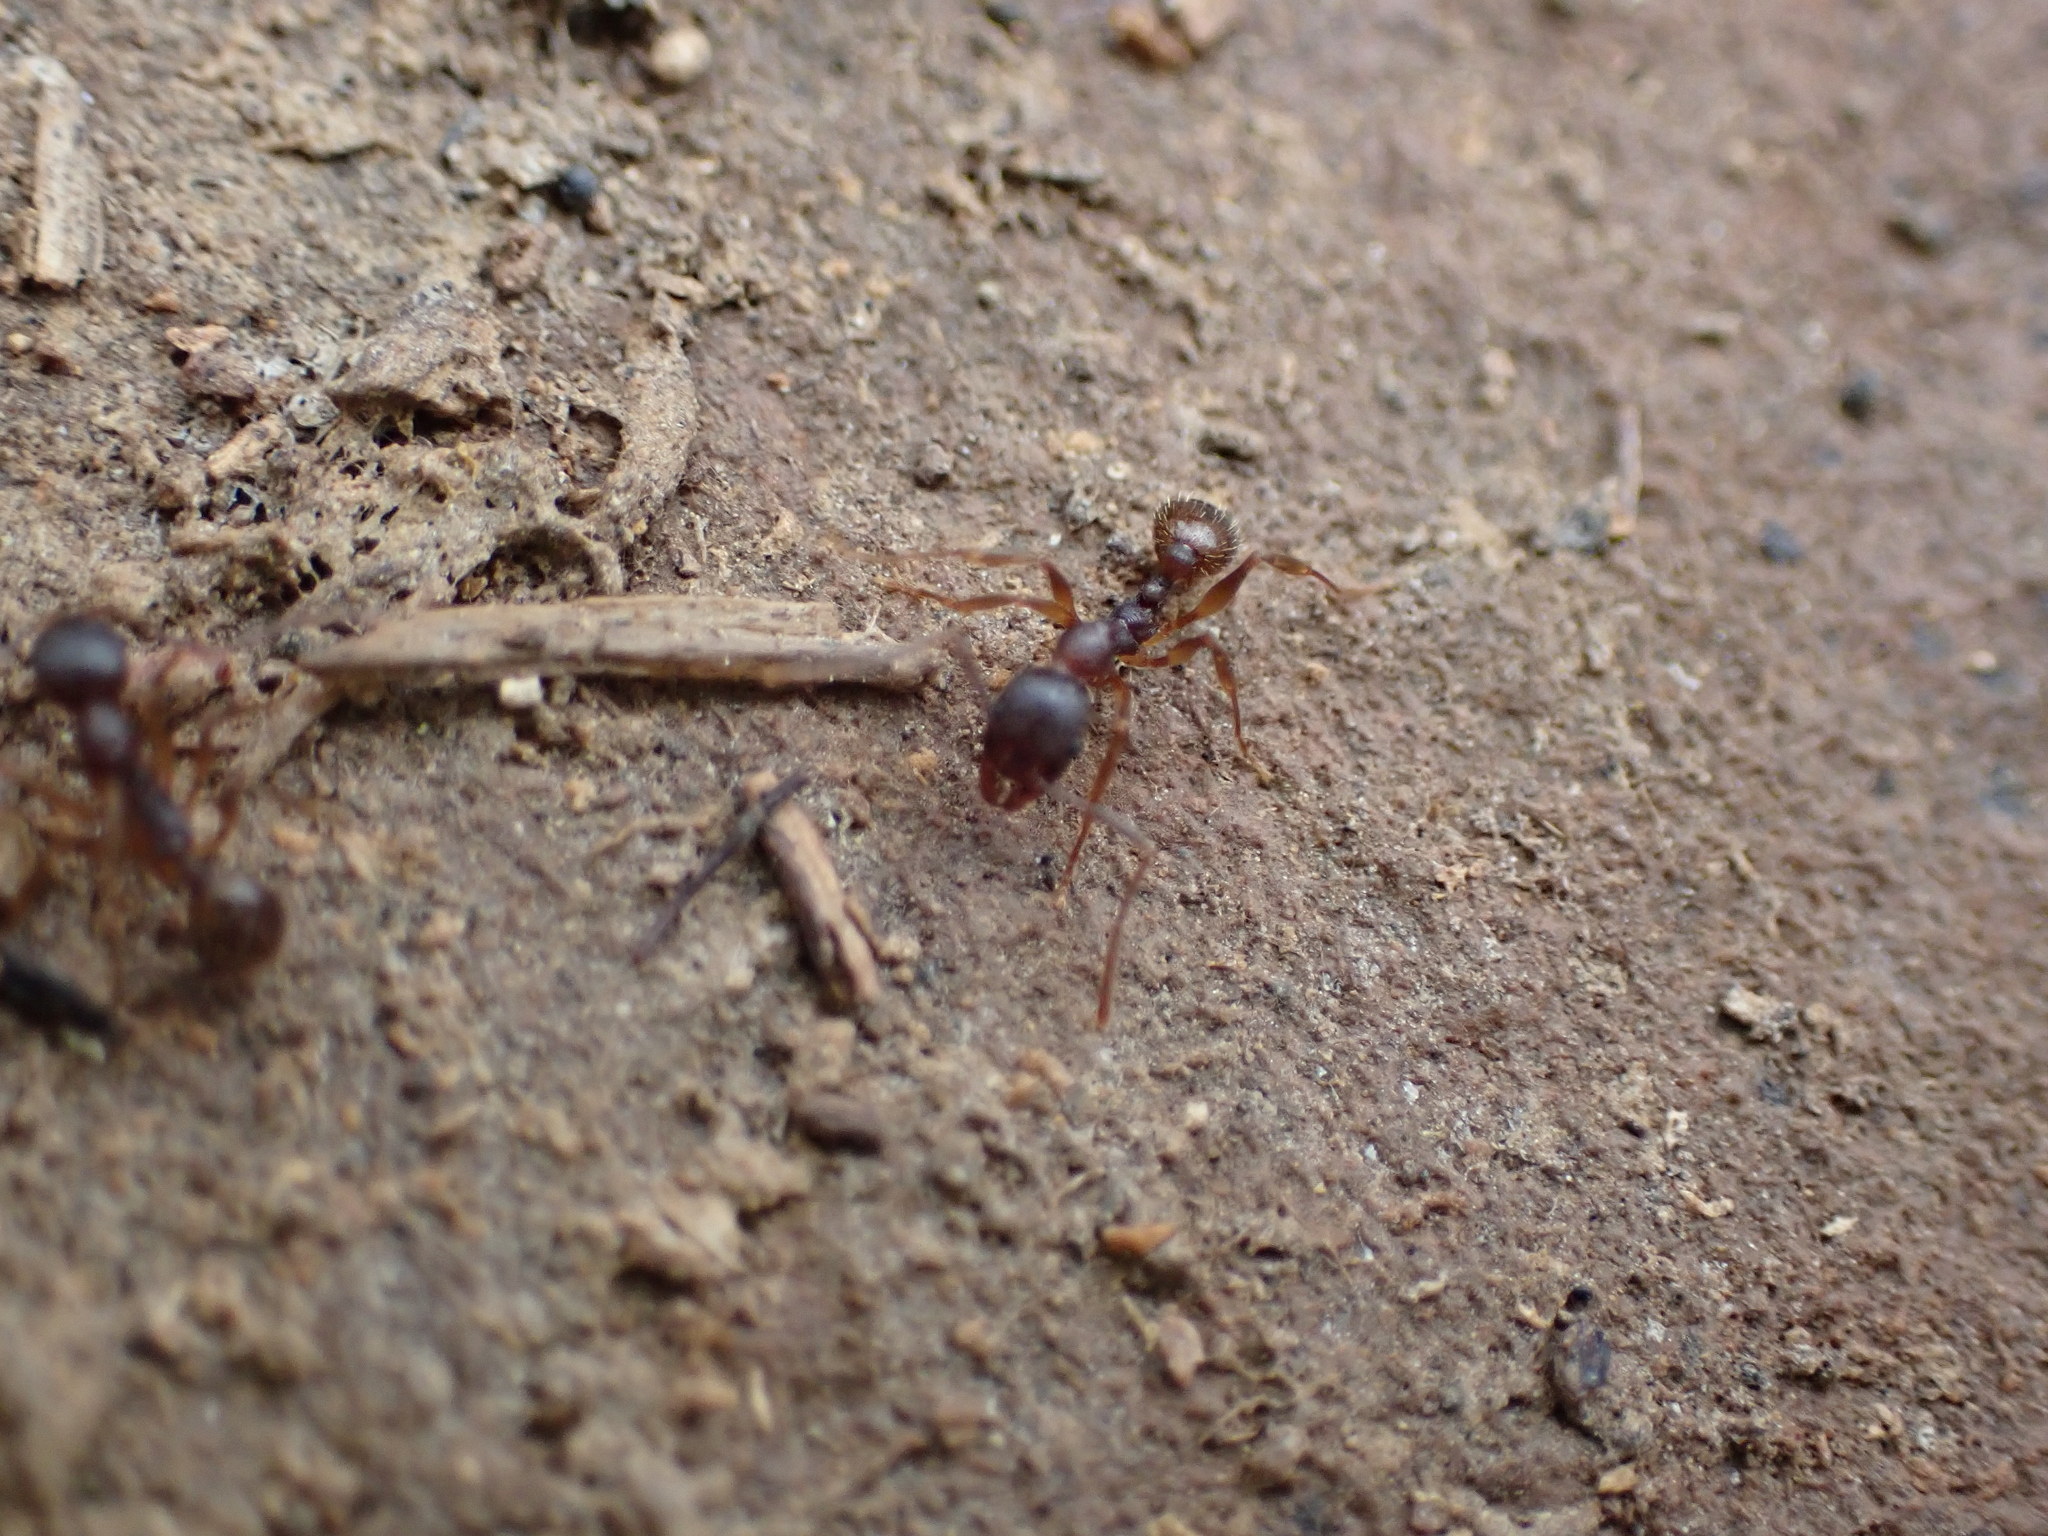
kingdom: Animalia
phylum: Arthropoda
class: Insecta
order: Hymenoptera
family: Formicidae
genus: Aphaenogaster
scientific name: Aphaenogaster rudis
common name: Winnow ant
